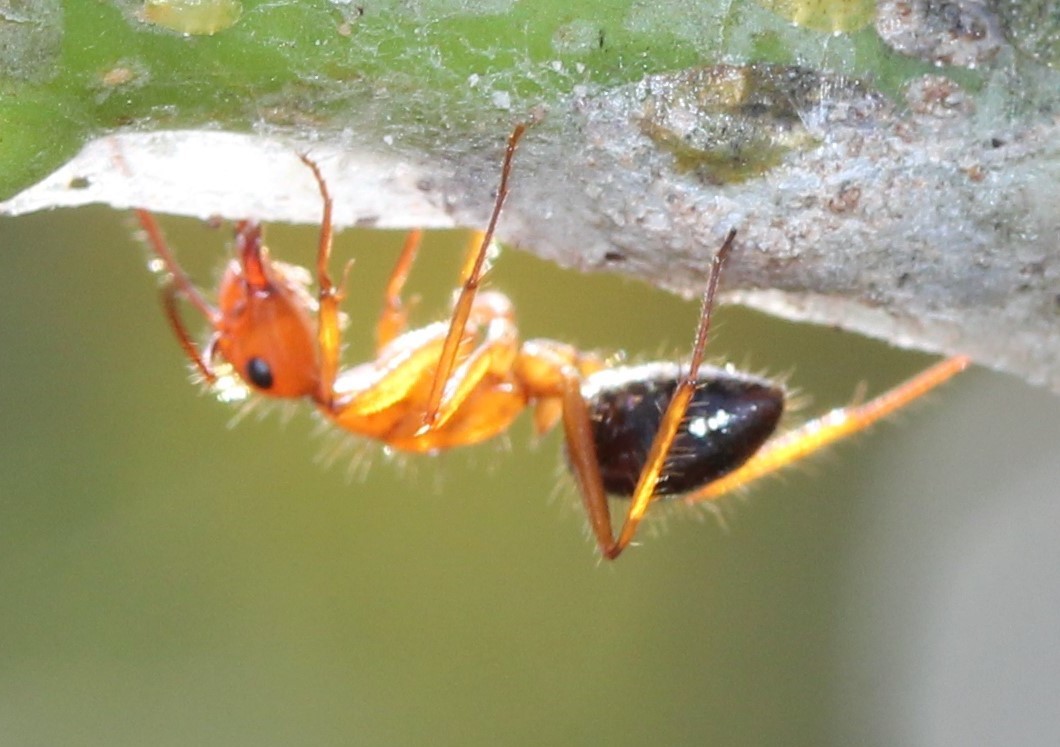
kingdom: Animalia
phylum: Arthropoda
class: Insecta
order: Hymenoptera
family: Formicidae
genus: Camponotus
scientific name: Camponotus floridanus
